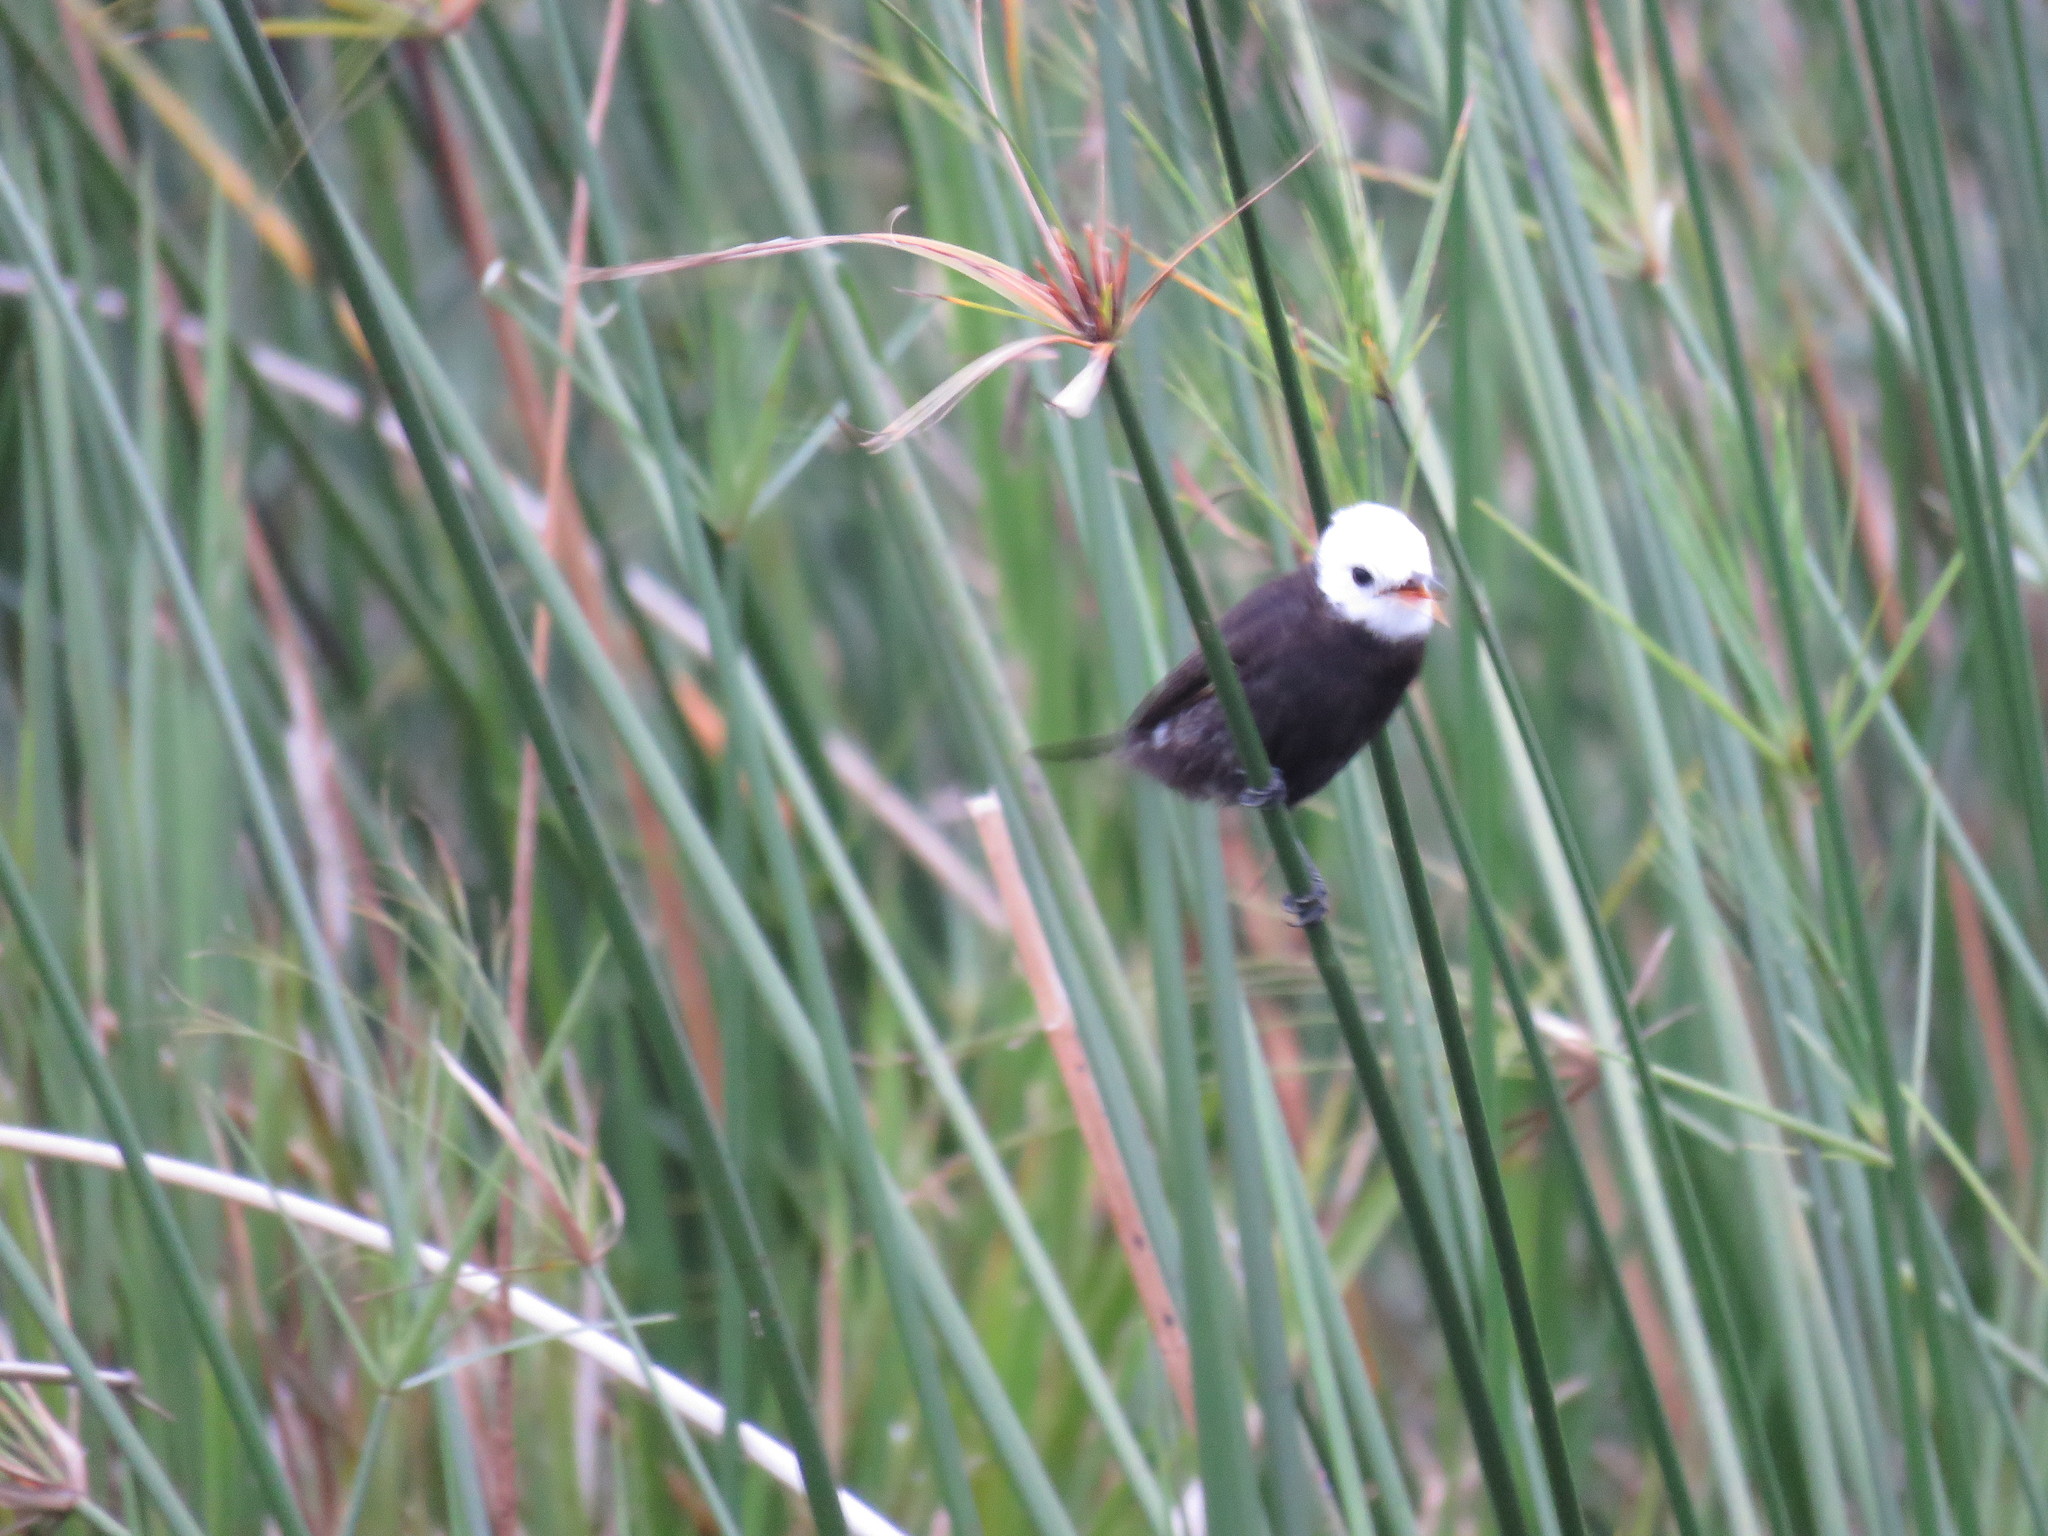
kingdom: Animalia
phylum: Chordata
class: Aves
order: Passeriformes
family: Tyrannidae
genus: Arundinicola
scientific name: Arundinicola leucocephala
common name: White-headed marsh tyrant
